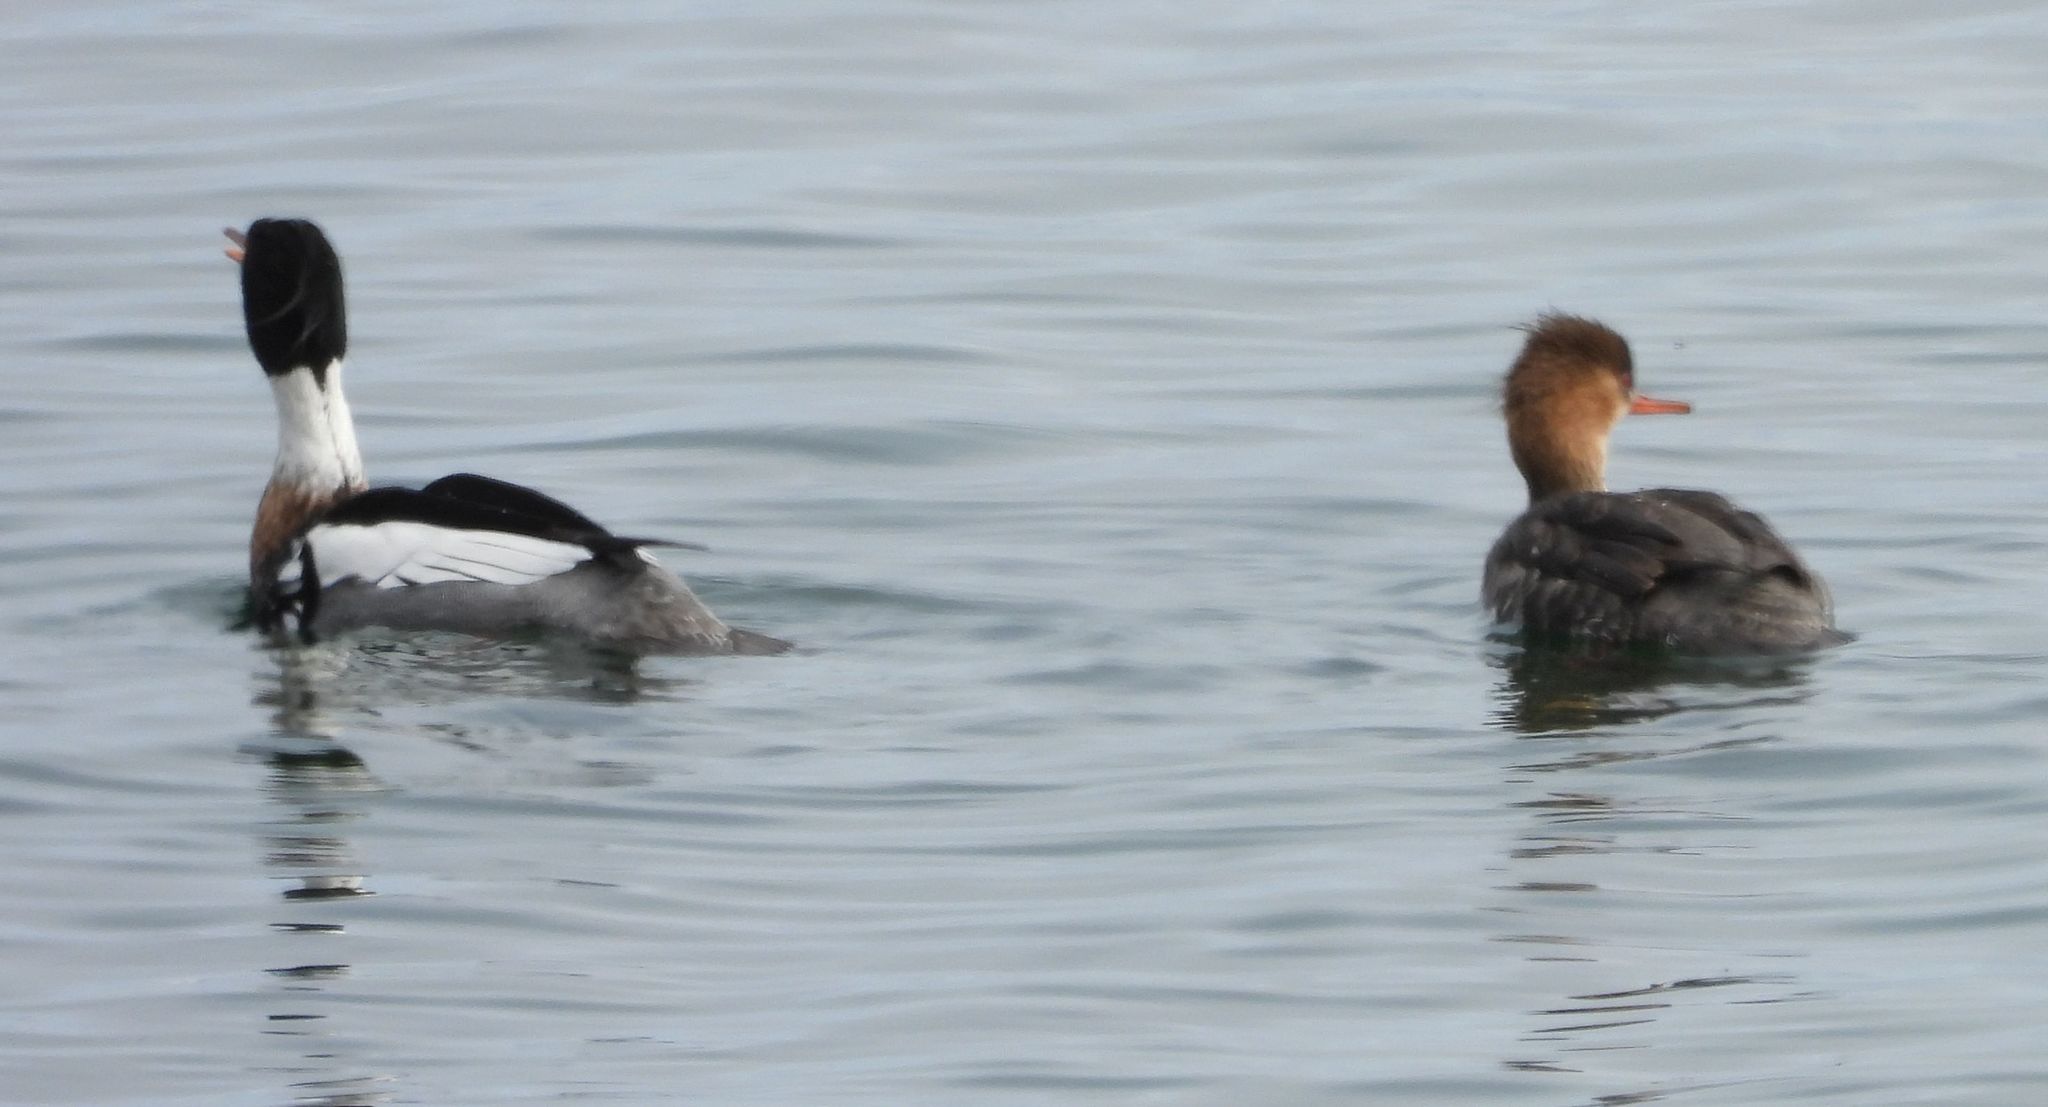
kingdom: Animalia
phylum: Chordata
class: Aves
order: Anseriformes
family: Anatidae
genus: Mergus
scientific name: Mergus serrator
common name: Red-breasted merganser
